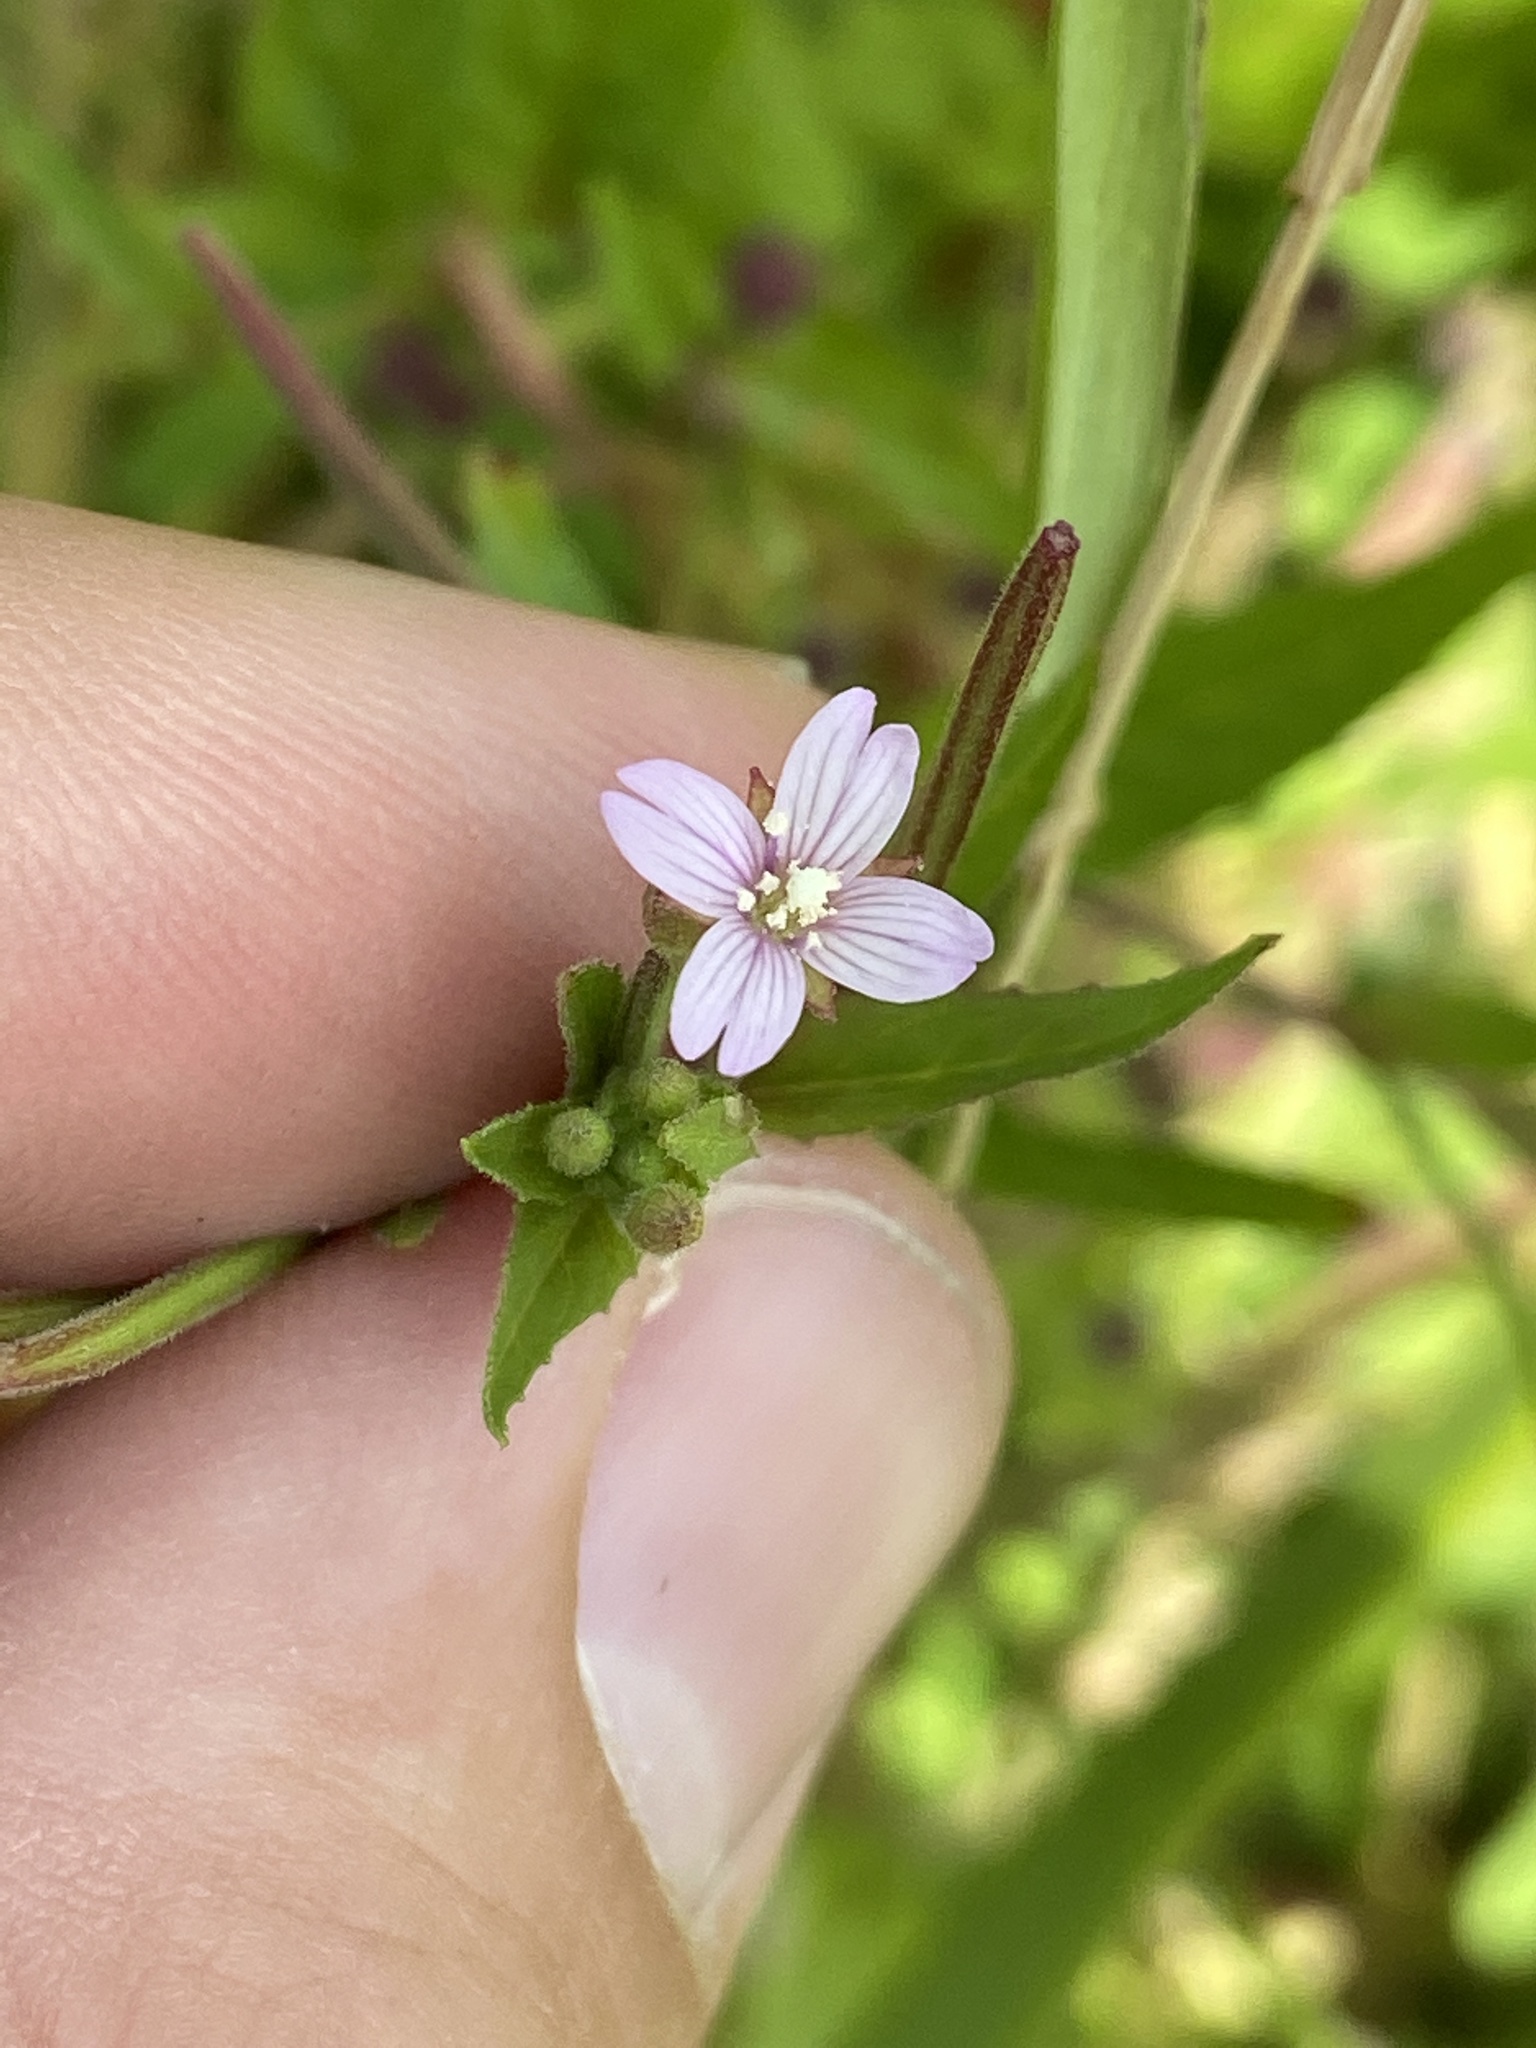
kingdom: Plantae
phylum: Tracheophyta
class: Magnoliopsida
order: Myrtales
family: Onagraceae
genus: Epilobium
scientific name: Epilobium ciliatum
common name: American willowherb
